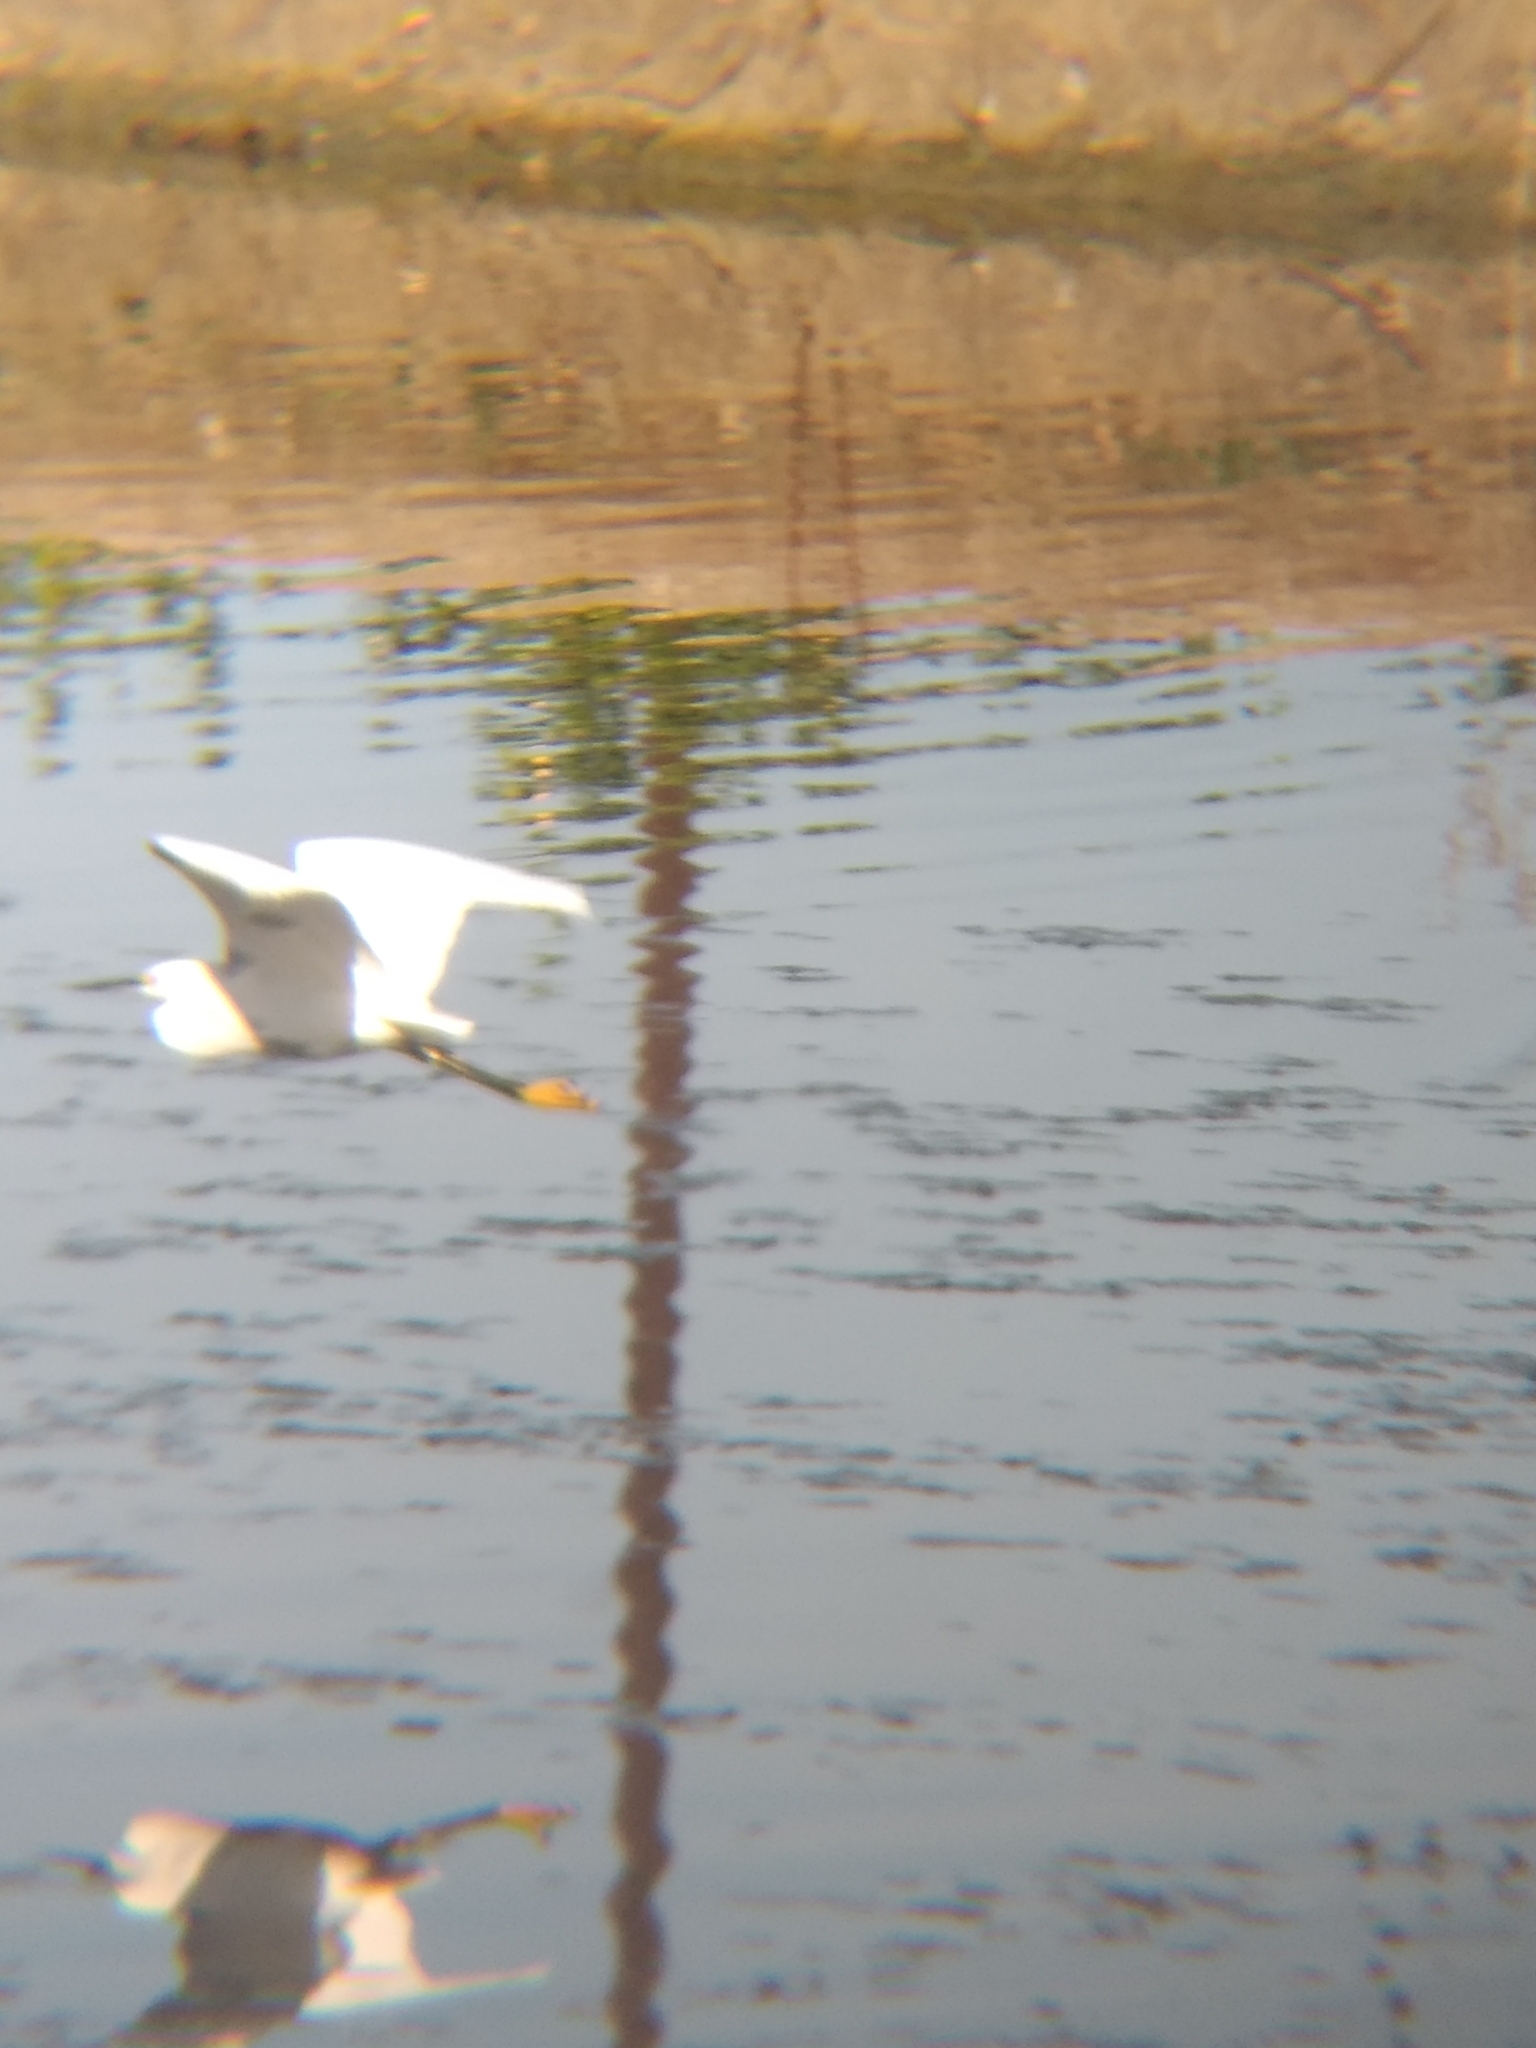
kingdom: Animalia
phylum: Chordata
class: Aves
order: Pelecaniformes
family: Ardeidae
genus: Egretta
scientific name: Egretta thula
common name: Snowy egret
